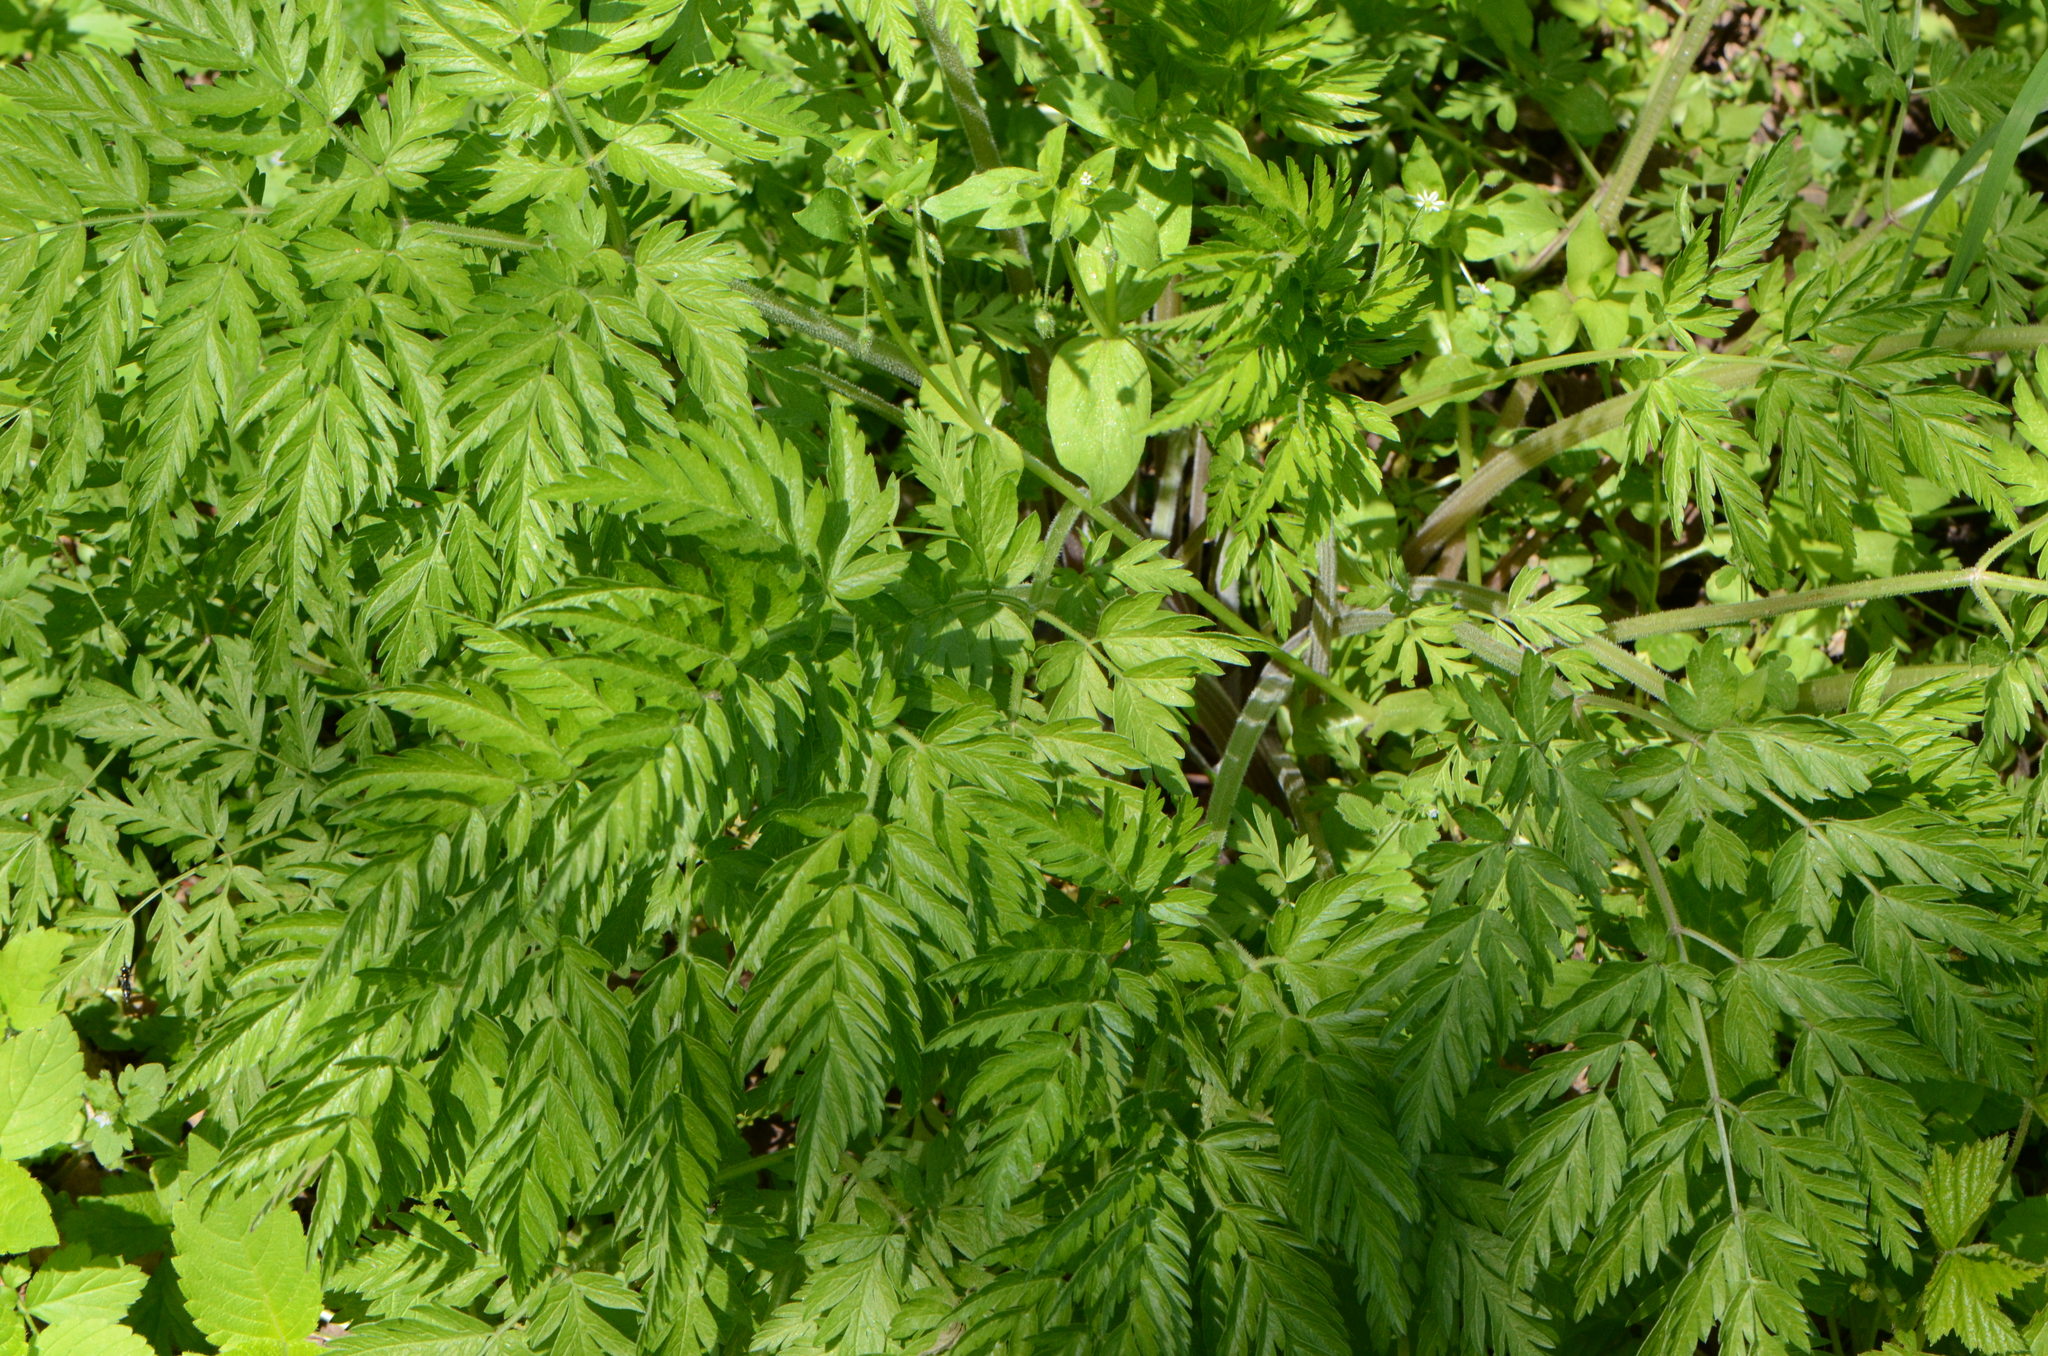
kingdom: Plantae
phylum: Tracheophyta
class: Magnoliopsida
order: Apiales
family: Apiaceae
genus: Anthriscus
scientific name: Anthriscus sylvestris
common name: Cow parsley
